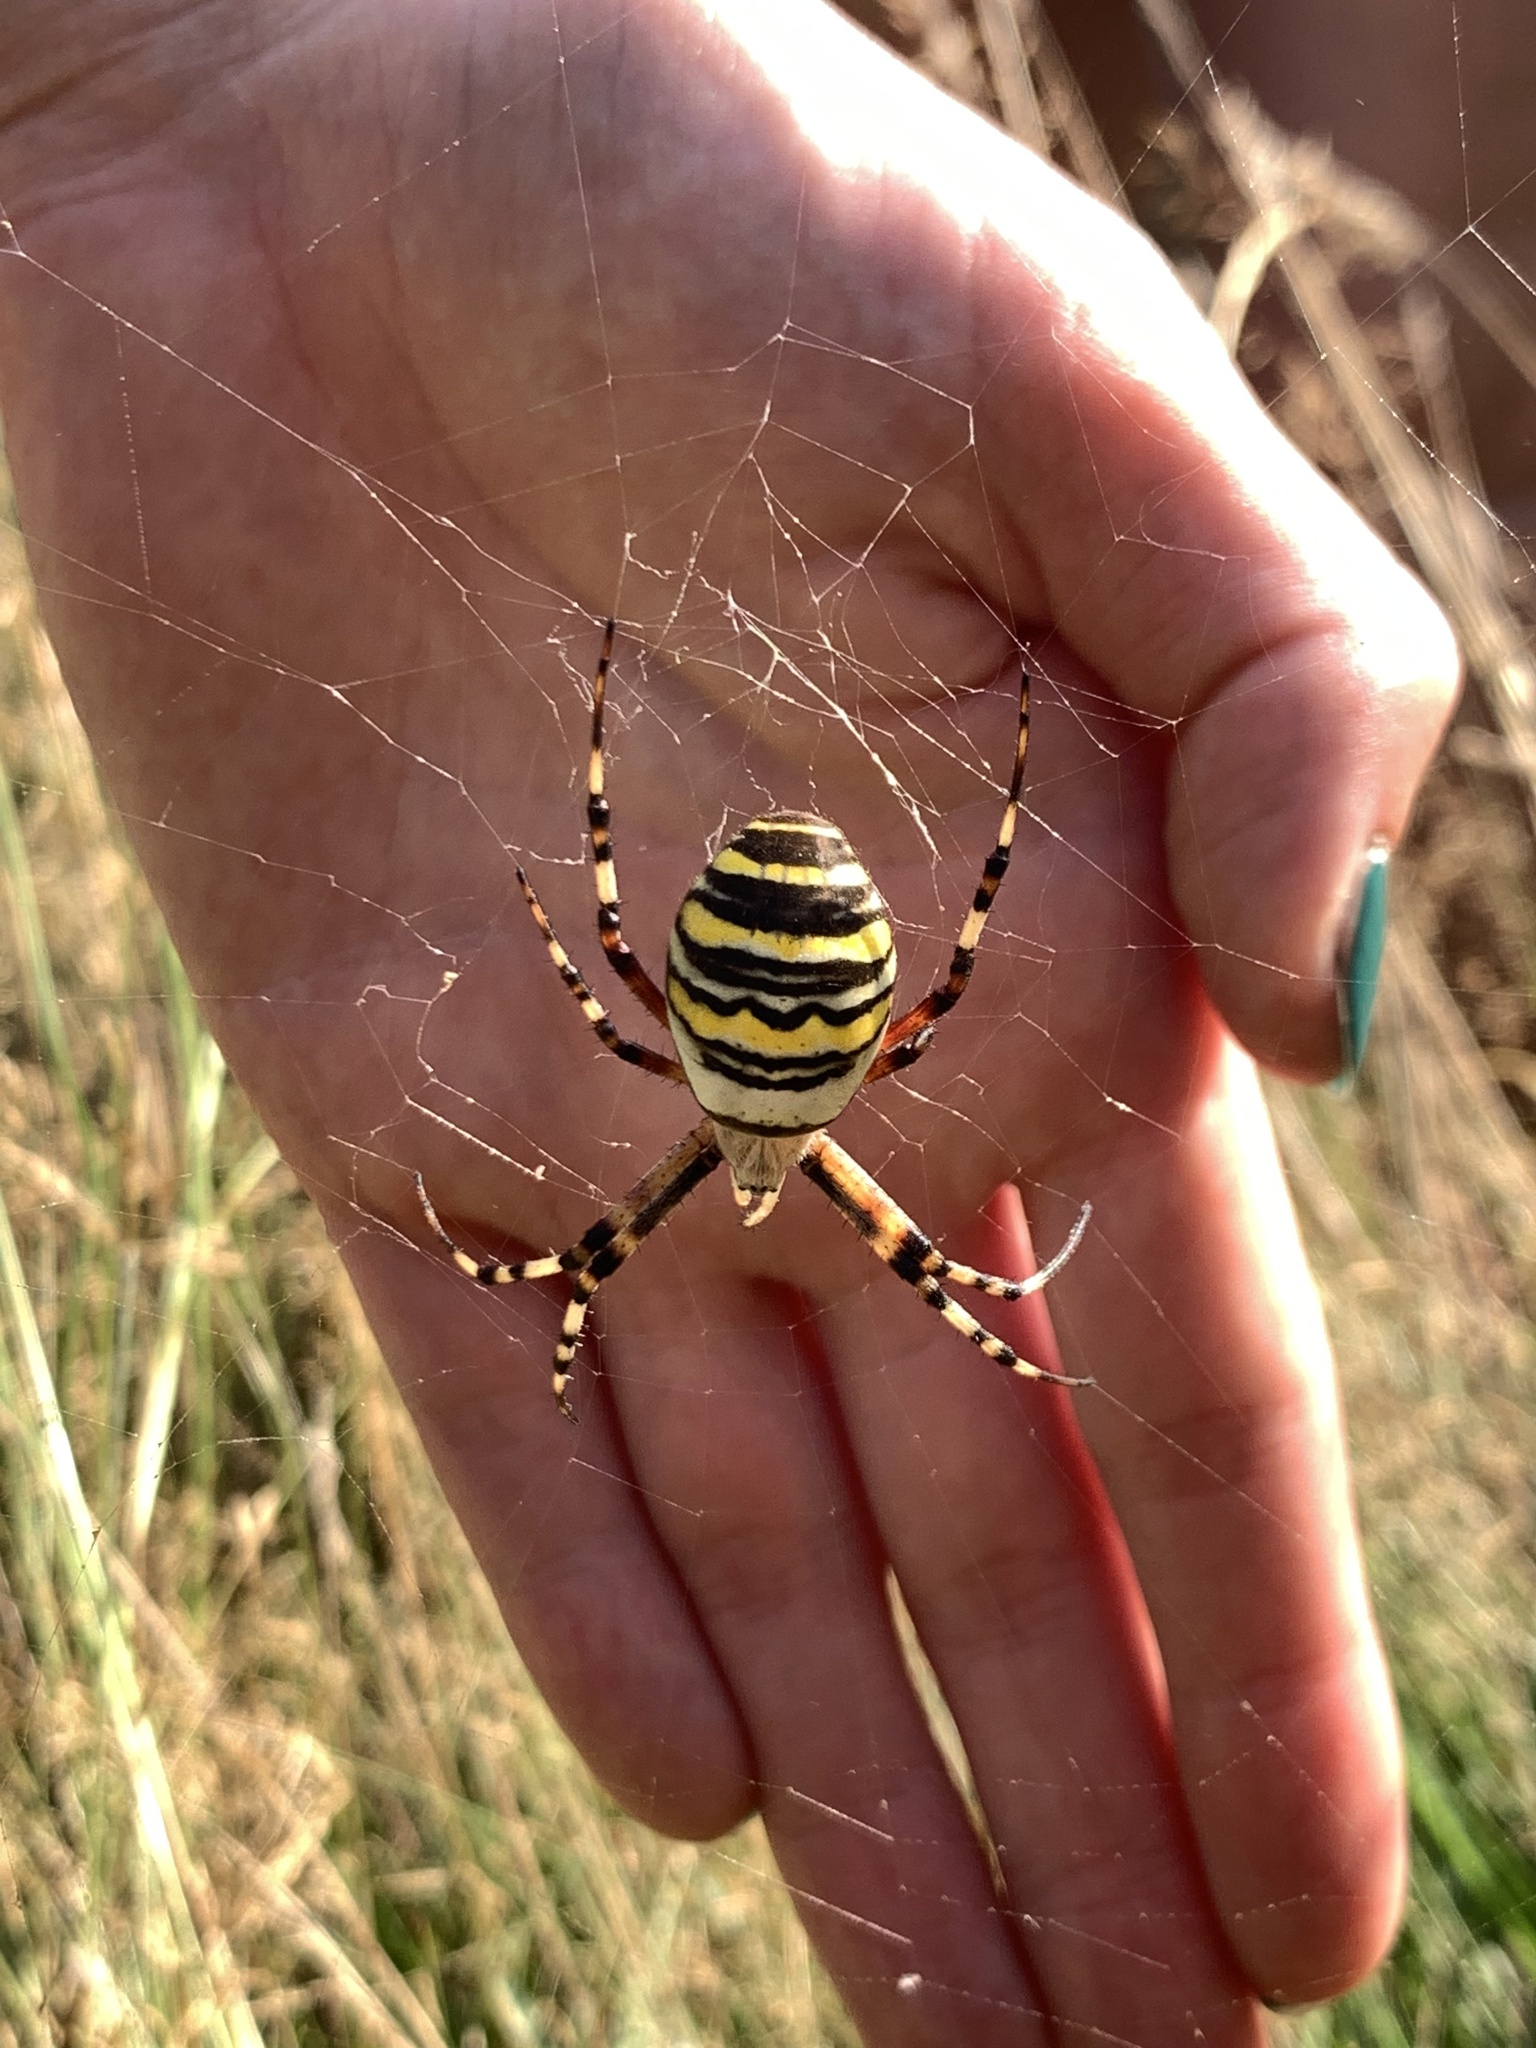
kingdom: Animalia
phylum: Arthropoda
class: Arachnida
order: Araneae
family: Araneidae
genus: Argiope
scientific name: Argiope bruennichi
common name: Wasp spider
